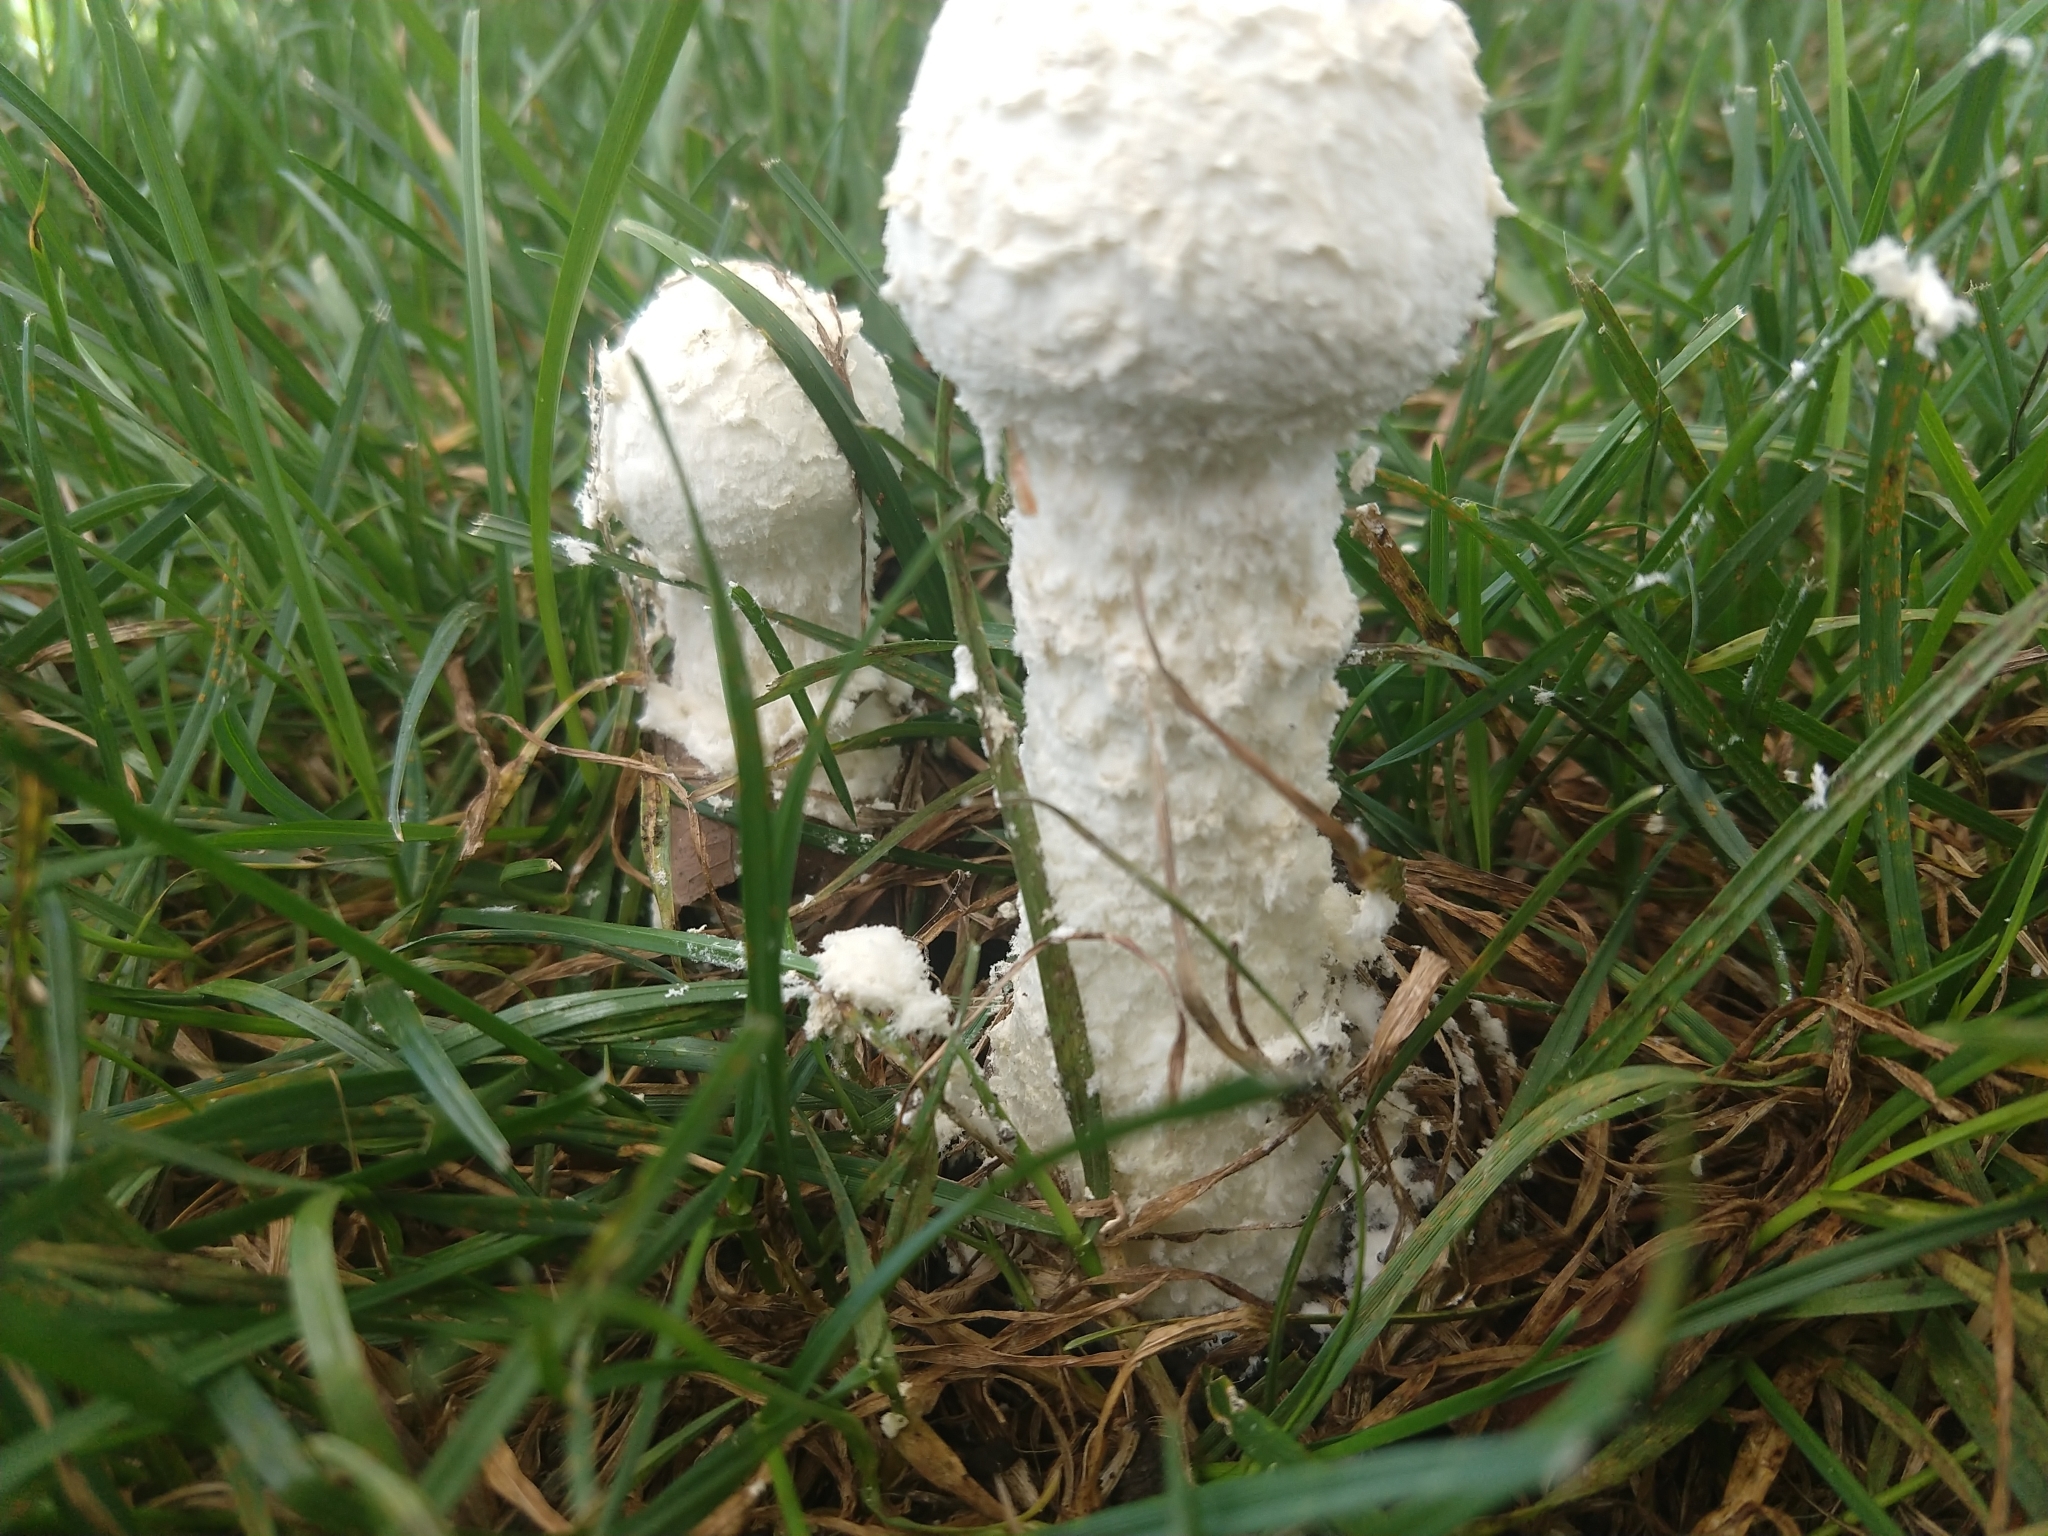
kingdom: Fungi
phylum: Basidiomycota
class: Agaricomycetes
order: Agaricales
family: Amanitaceae
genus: Amanita
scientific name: Amanita thiersii
